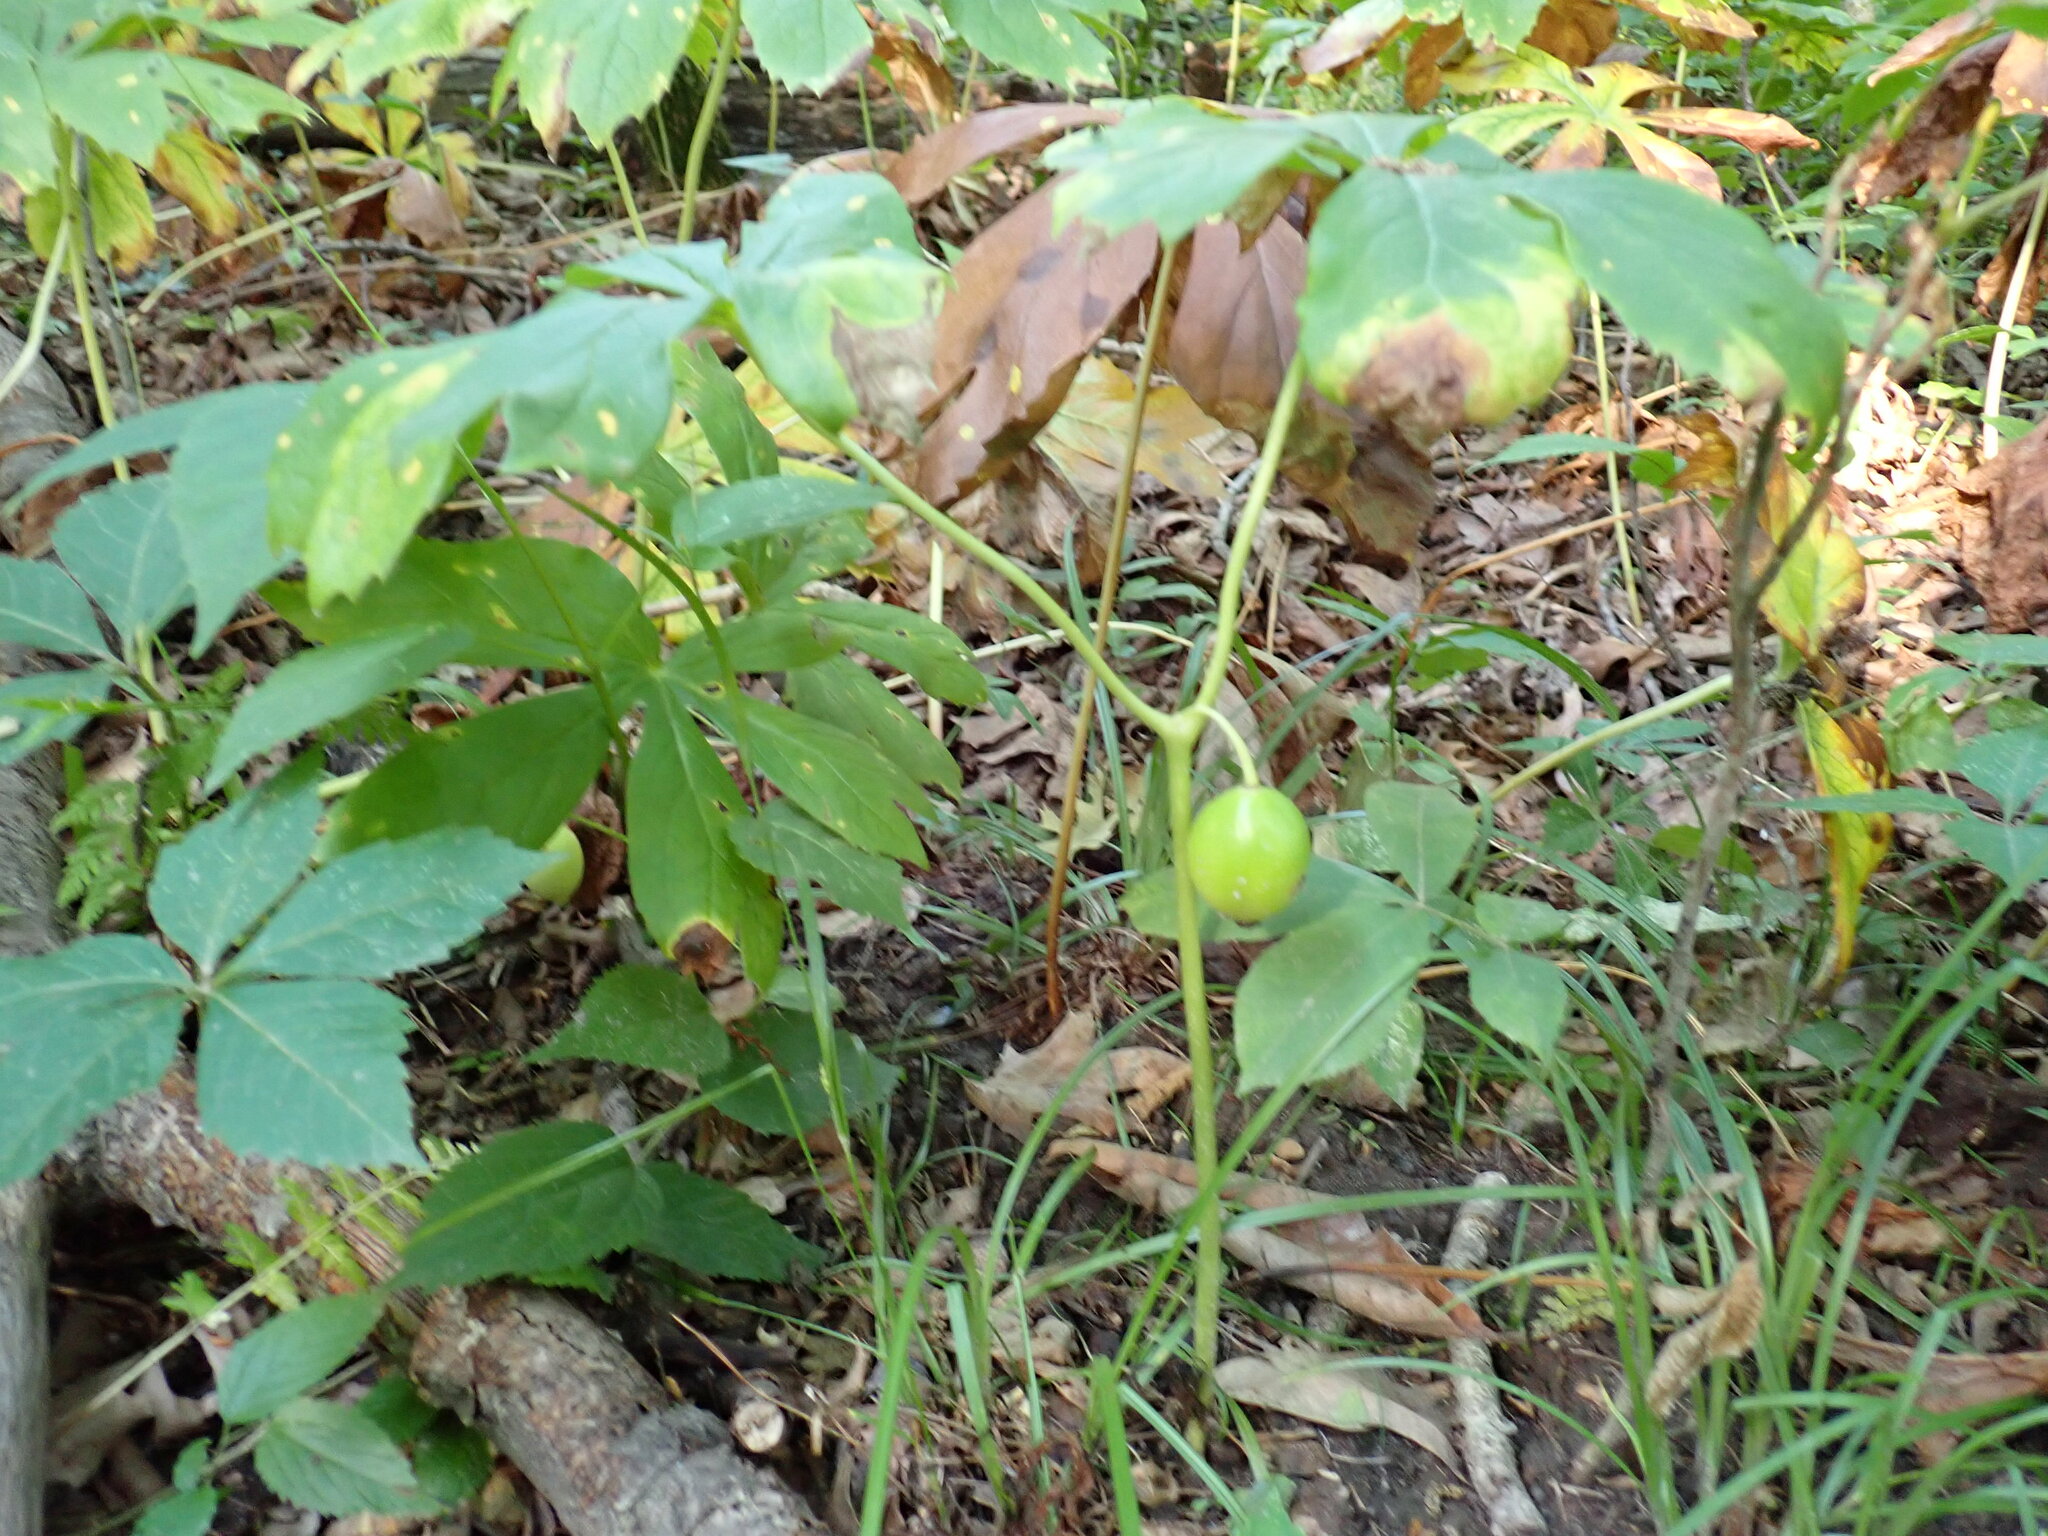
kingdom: Plantae
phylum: Tracheophyta
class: Magnoliopsida
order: Ranunculales
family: Berberidaceae
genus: Podophyllum
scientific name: Podophyllum peltatum
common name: Wild mandrake
